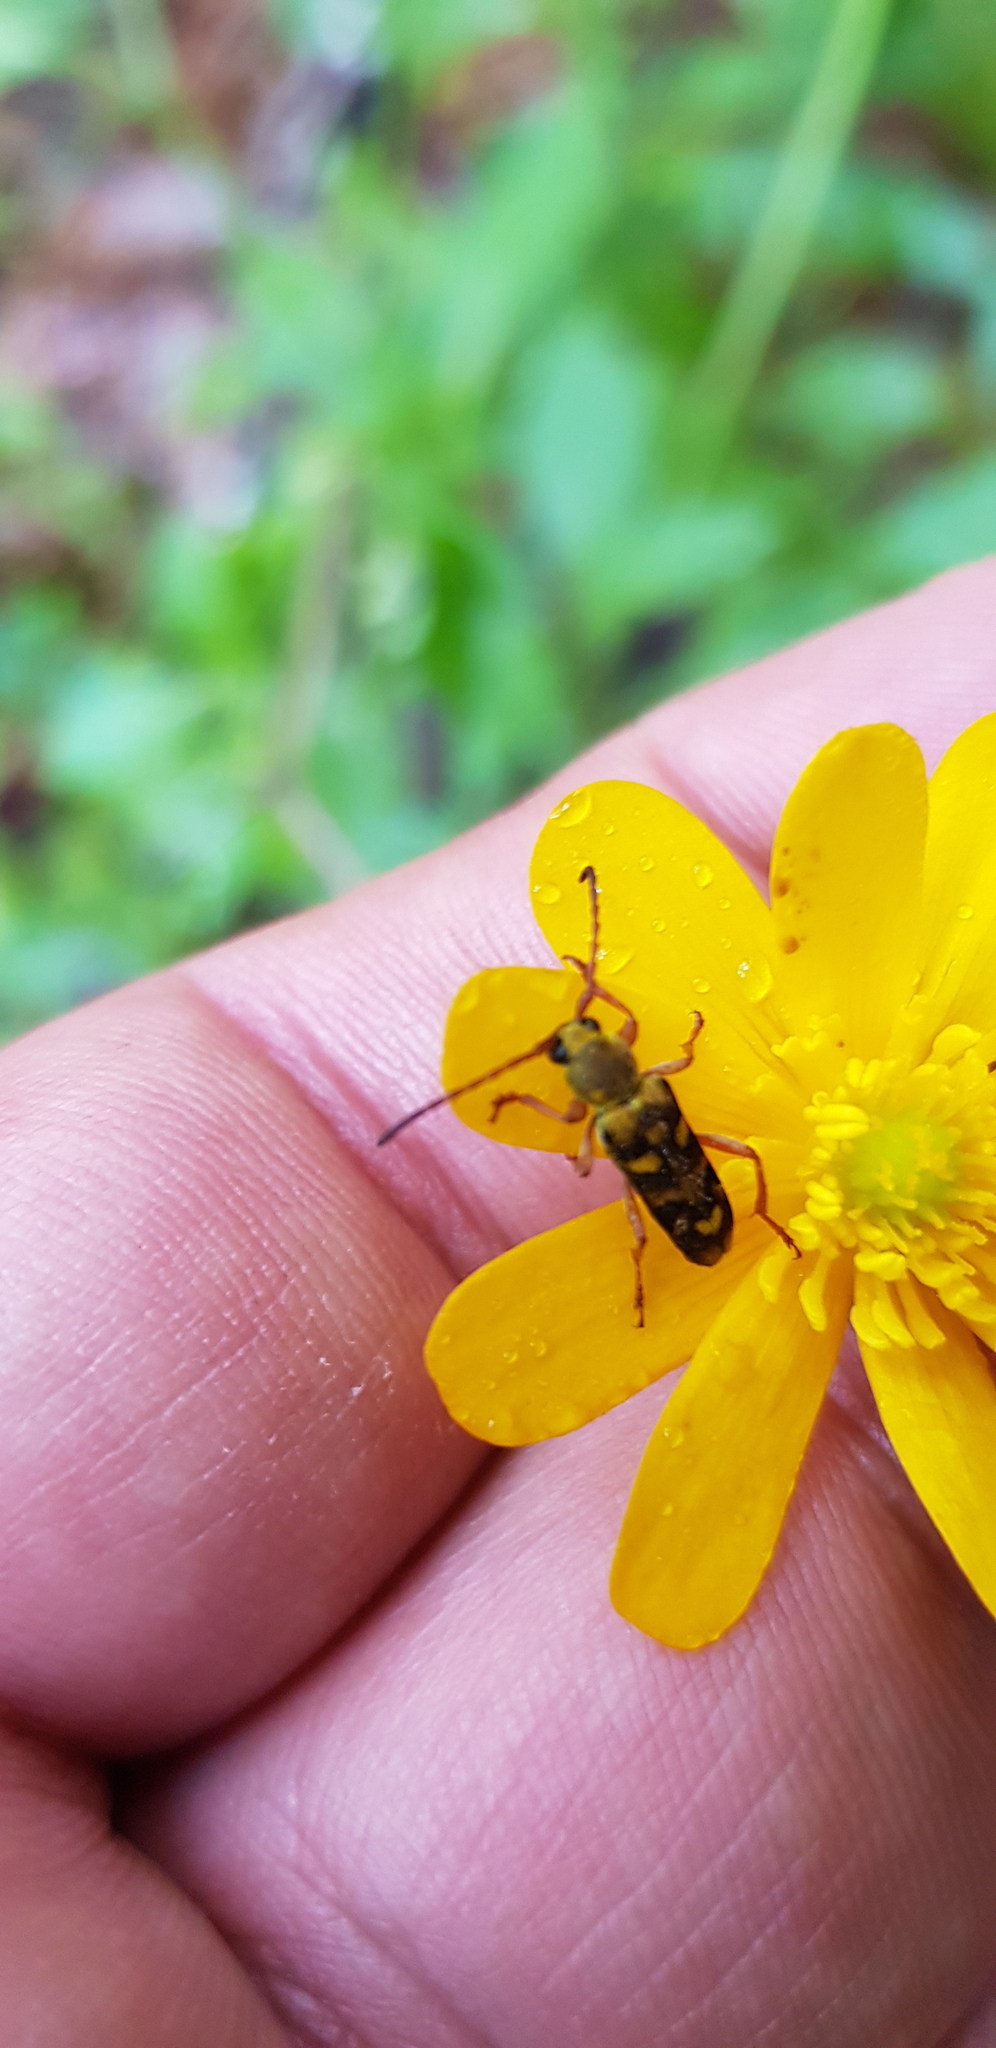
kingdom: Animalia
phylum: Arthropoda
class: Insecta
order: Coleoptera
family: Cerambycidae
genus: Ochraethes
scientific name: Ochraethes viridiventris
